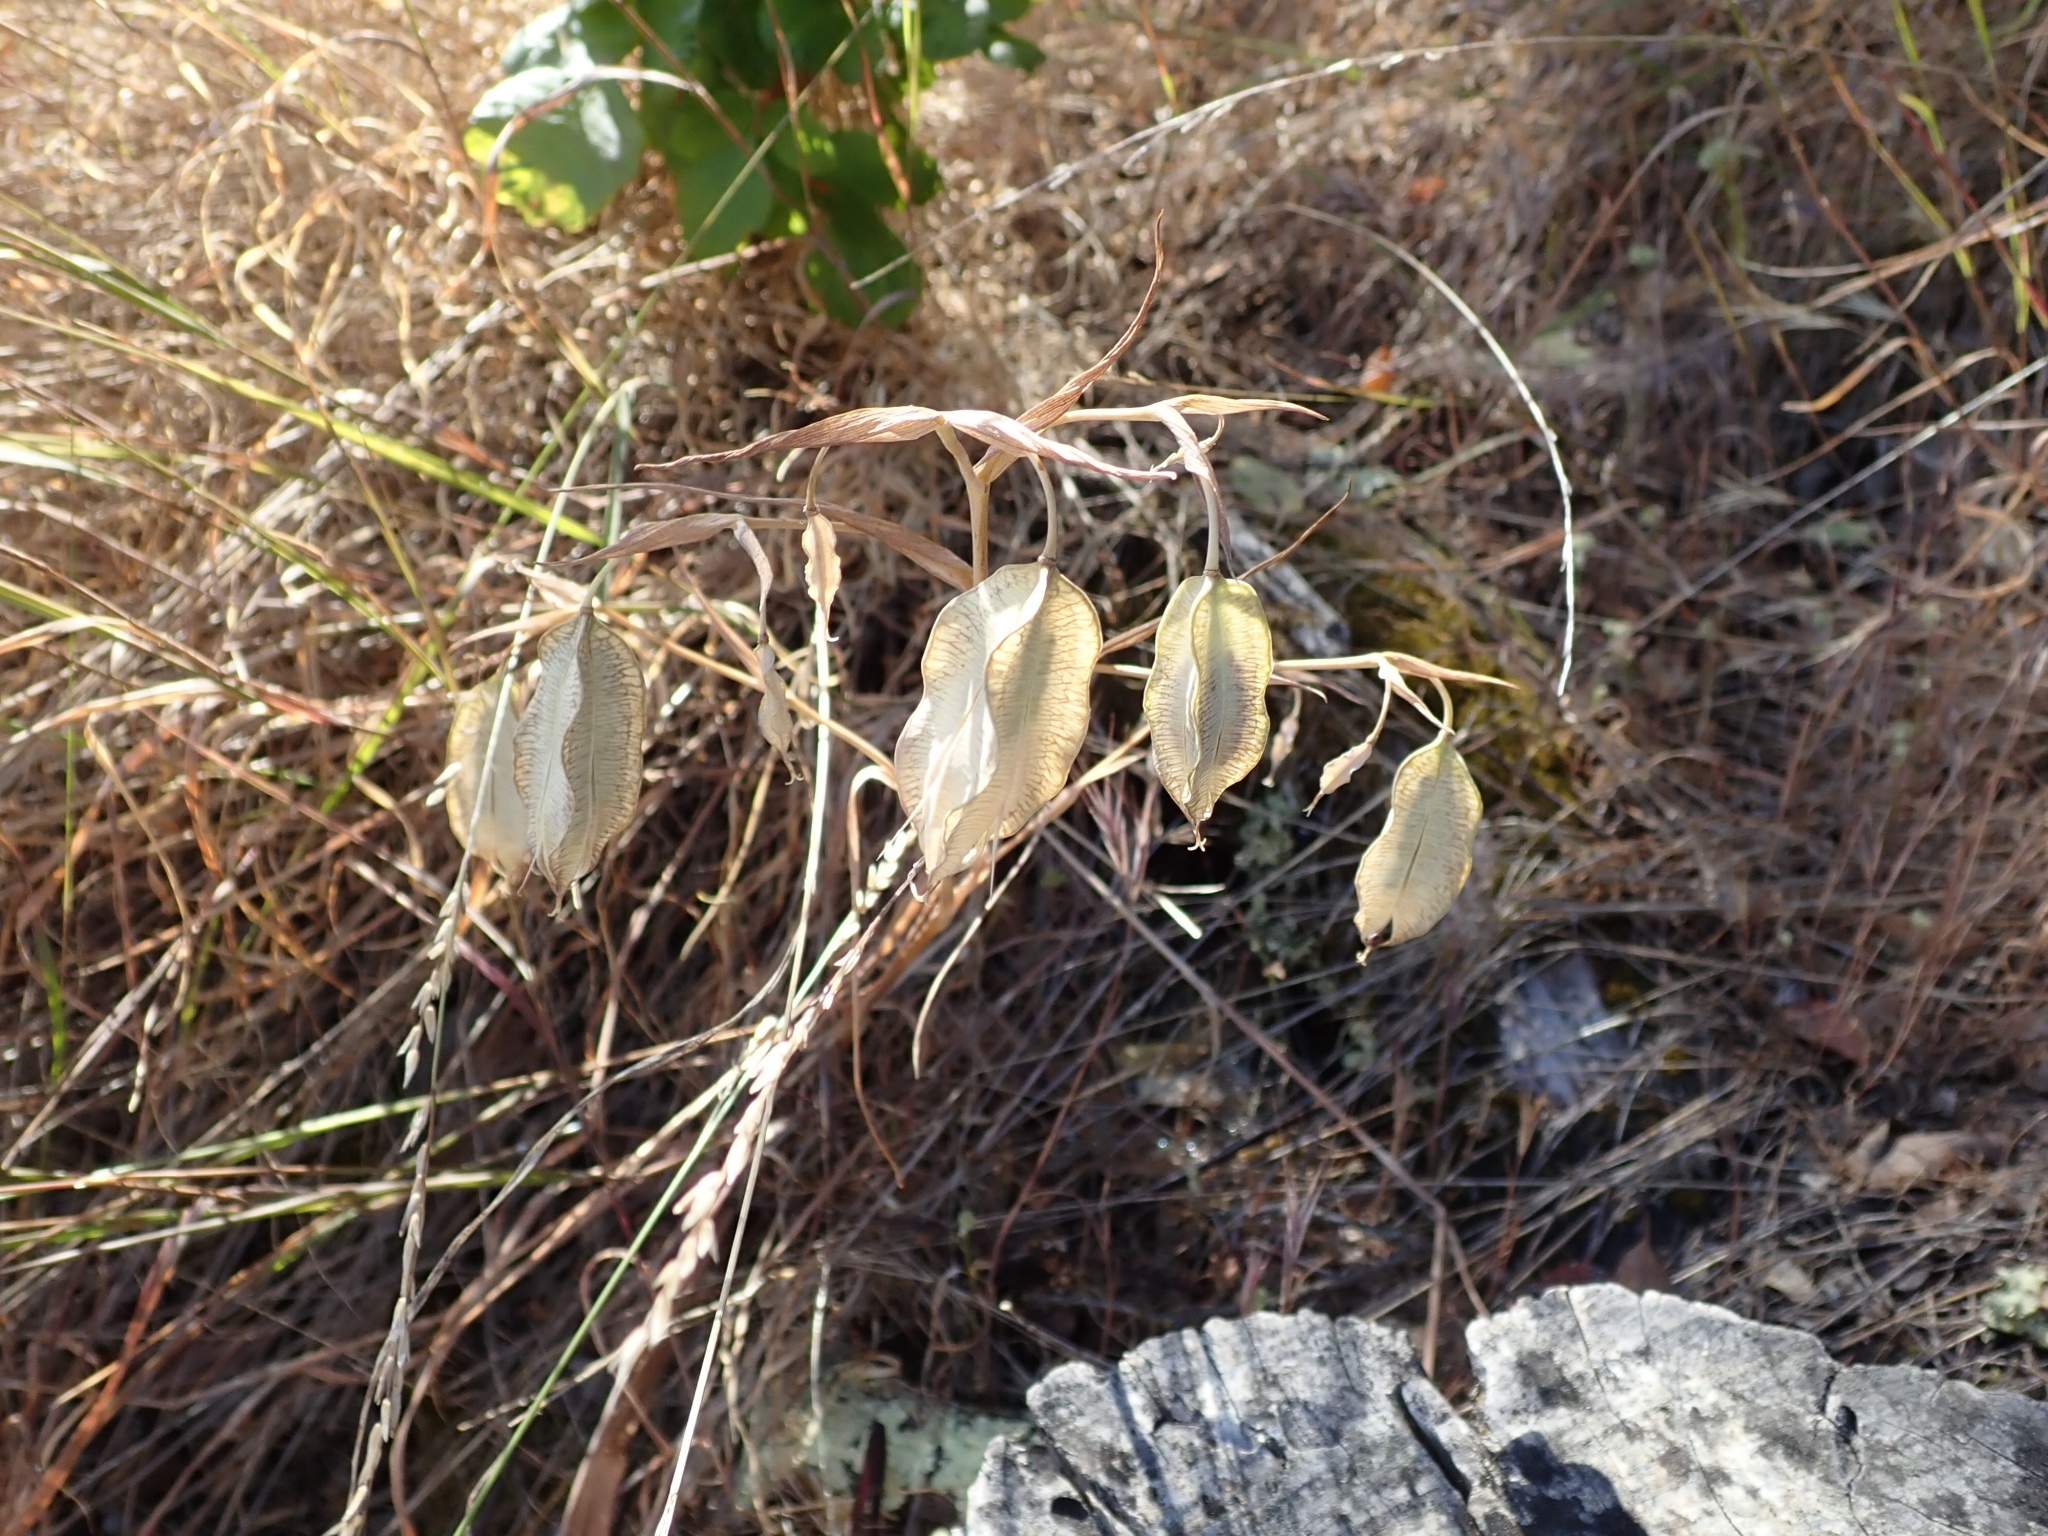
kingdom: Plantae
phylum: Tracheophyta
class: Liliopsida
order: Liliales
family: Liliaceae
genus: Calochortus
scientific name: Calochortus albus
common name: Fairy-lantern
